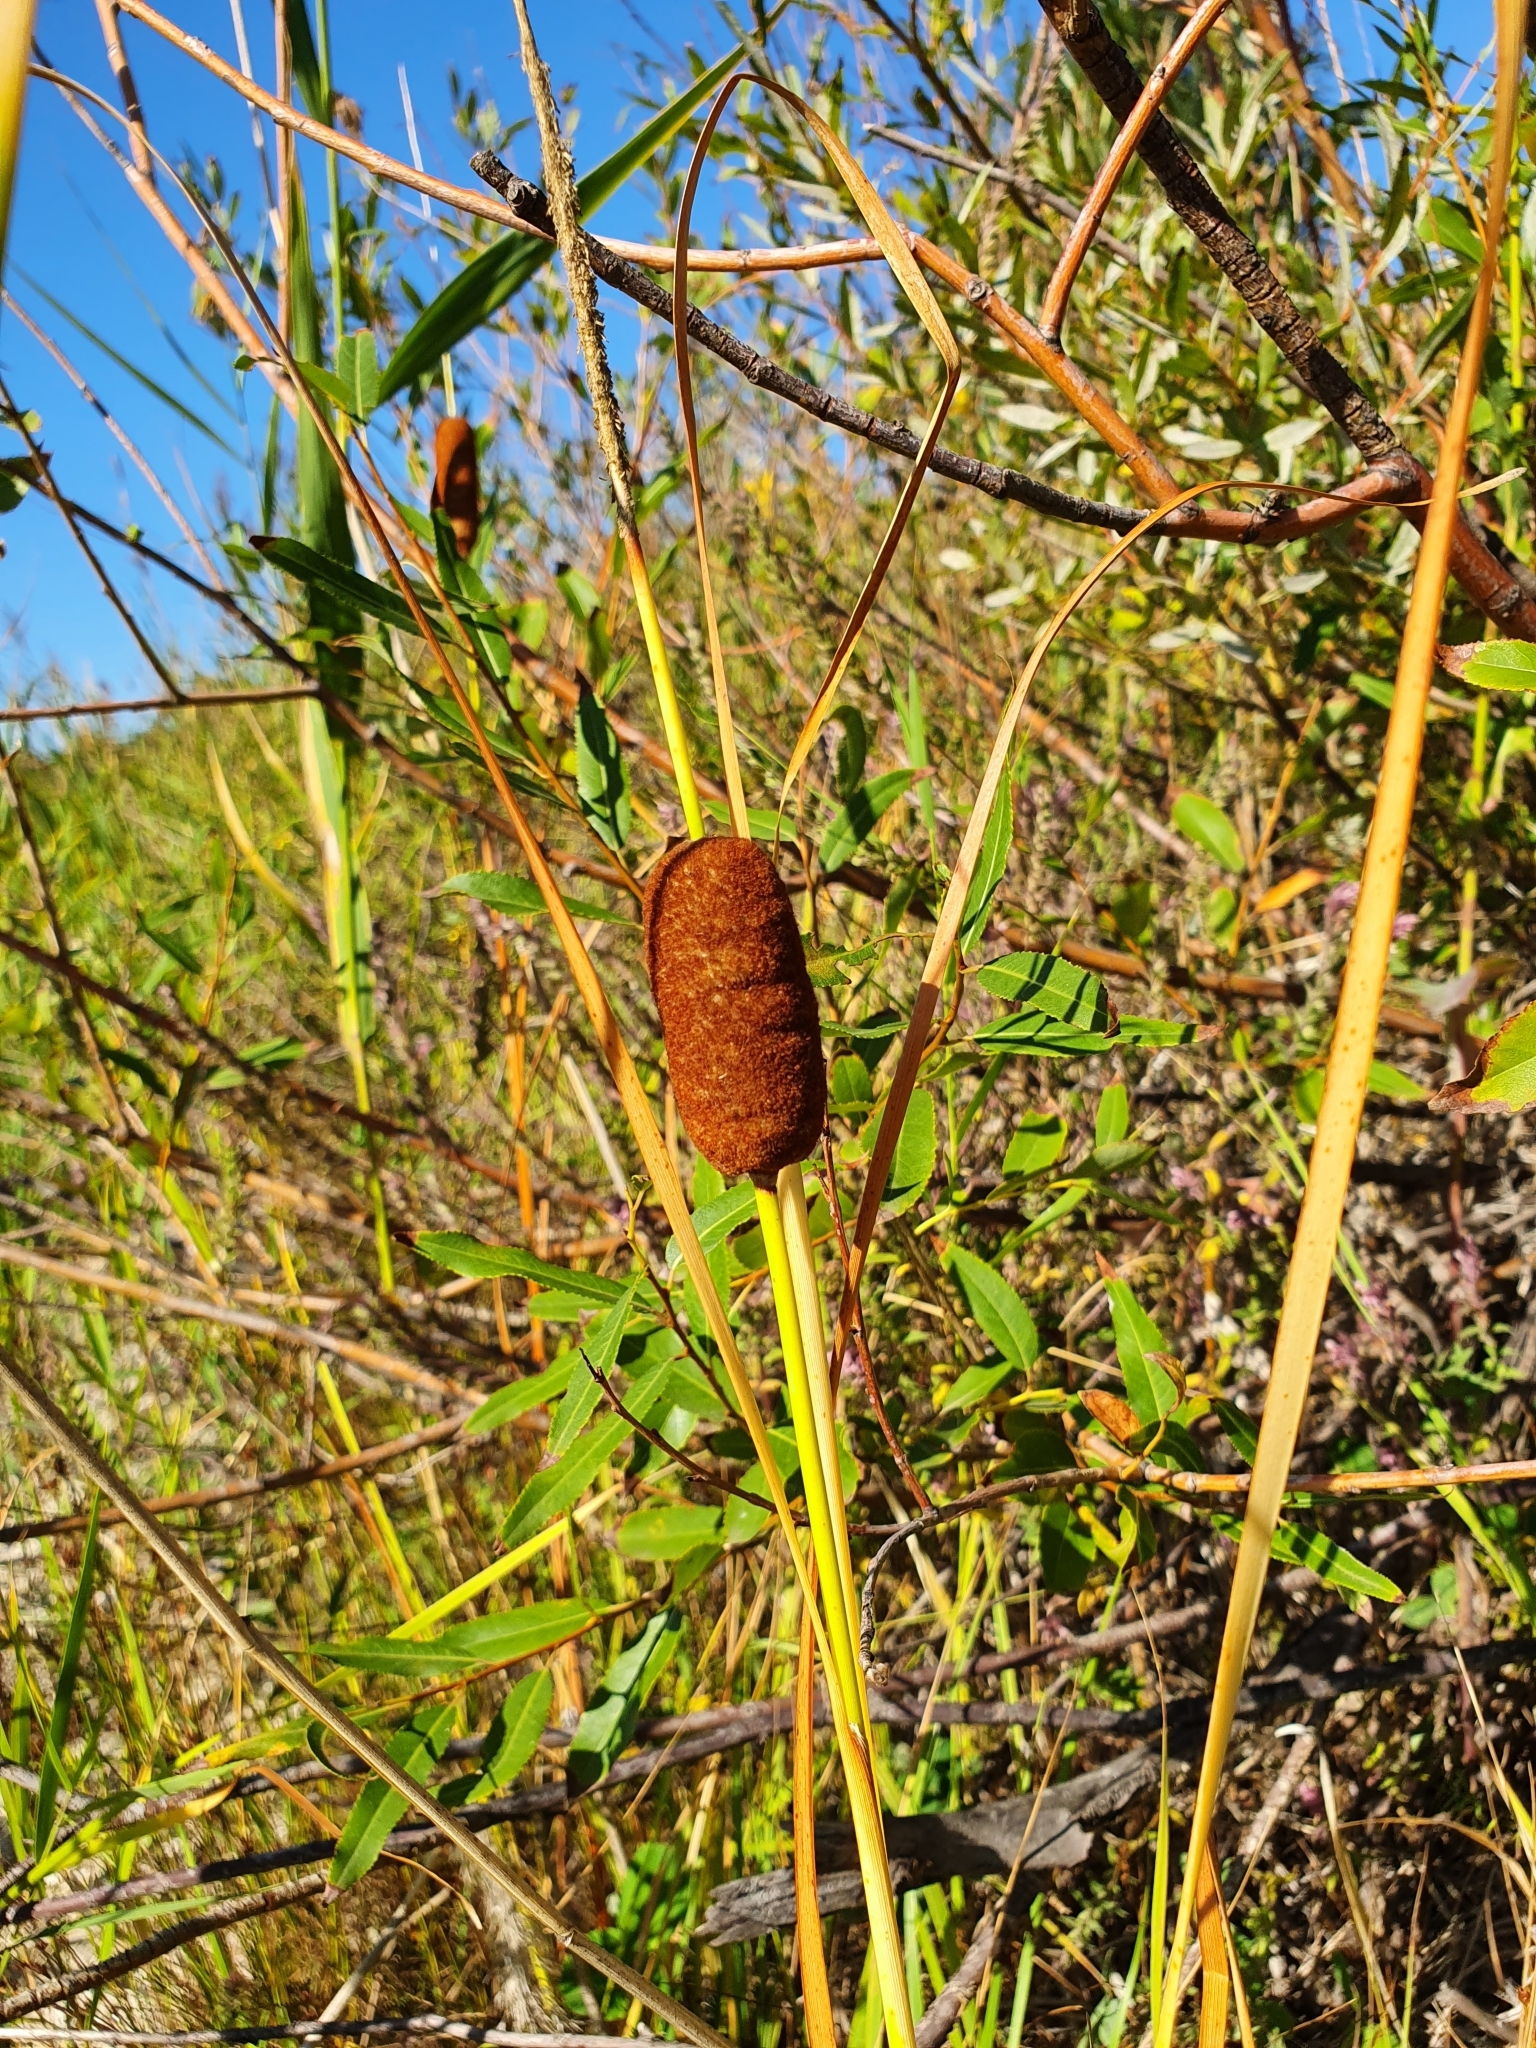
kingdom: Plantae
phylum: Tracheophyta
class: Liliopsida
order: Poales
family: Typhaceae
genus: Typha
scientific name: Typha laxmannii
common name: Laxman’s bulrush
